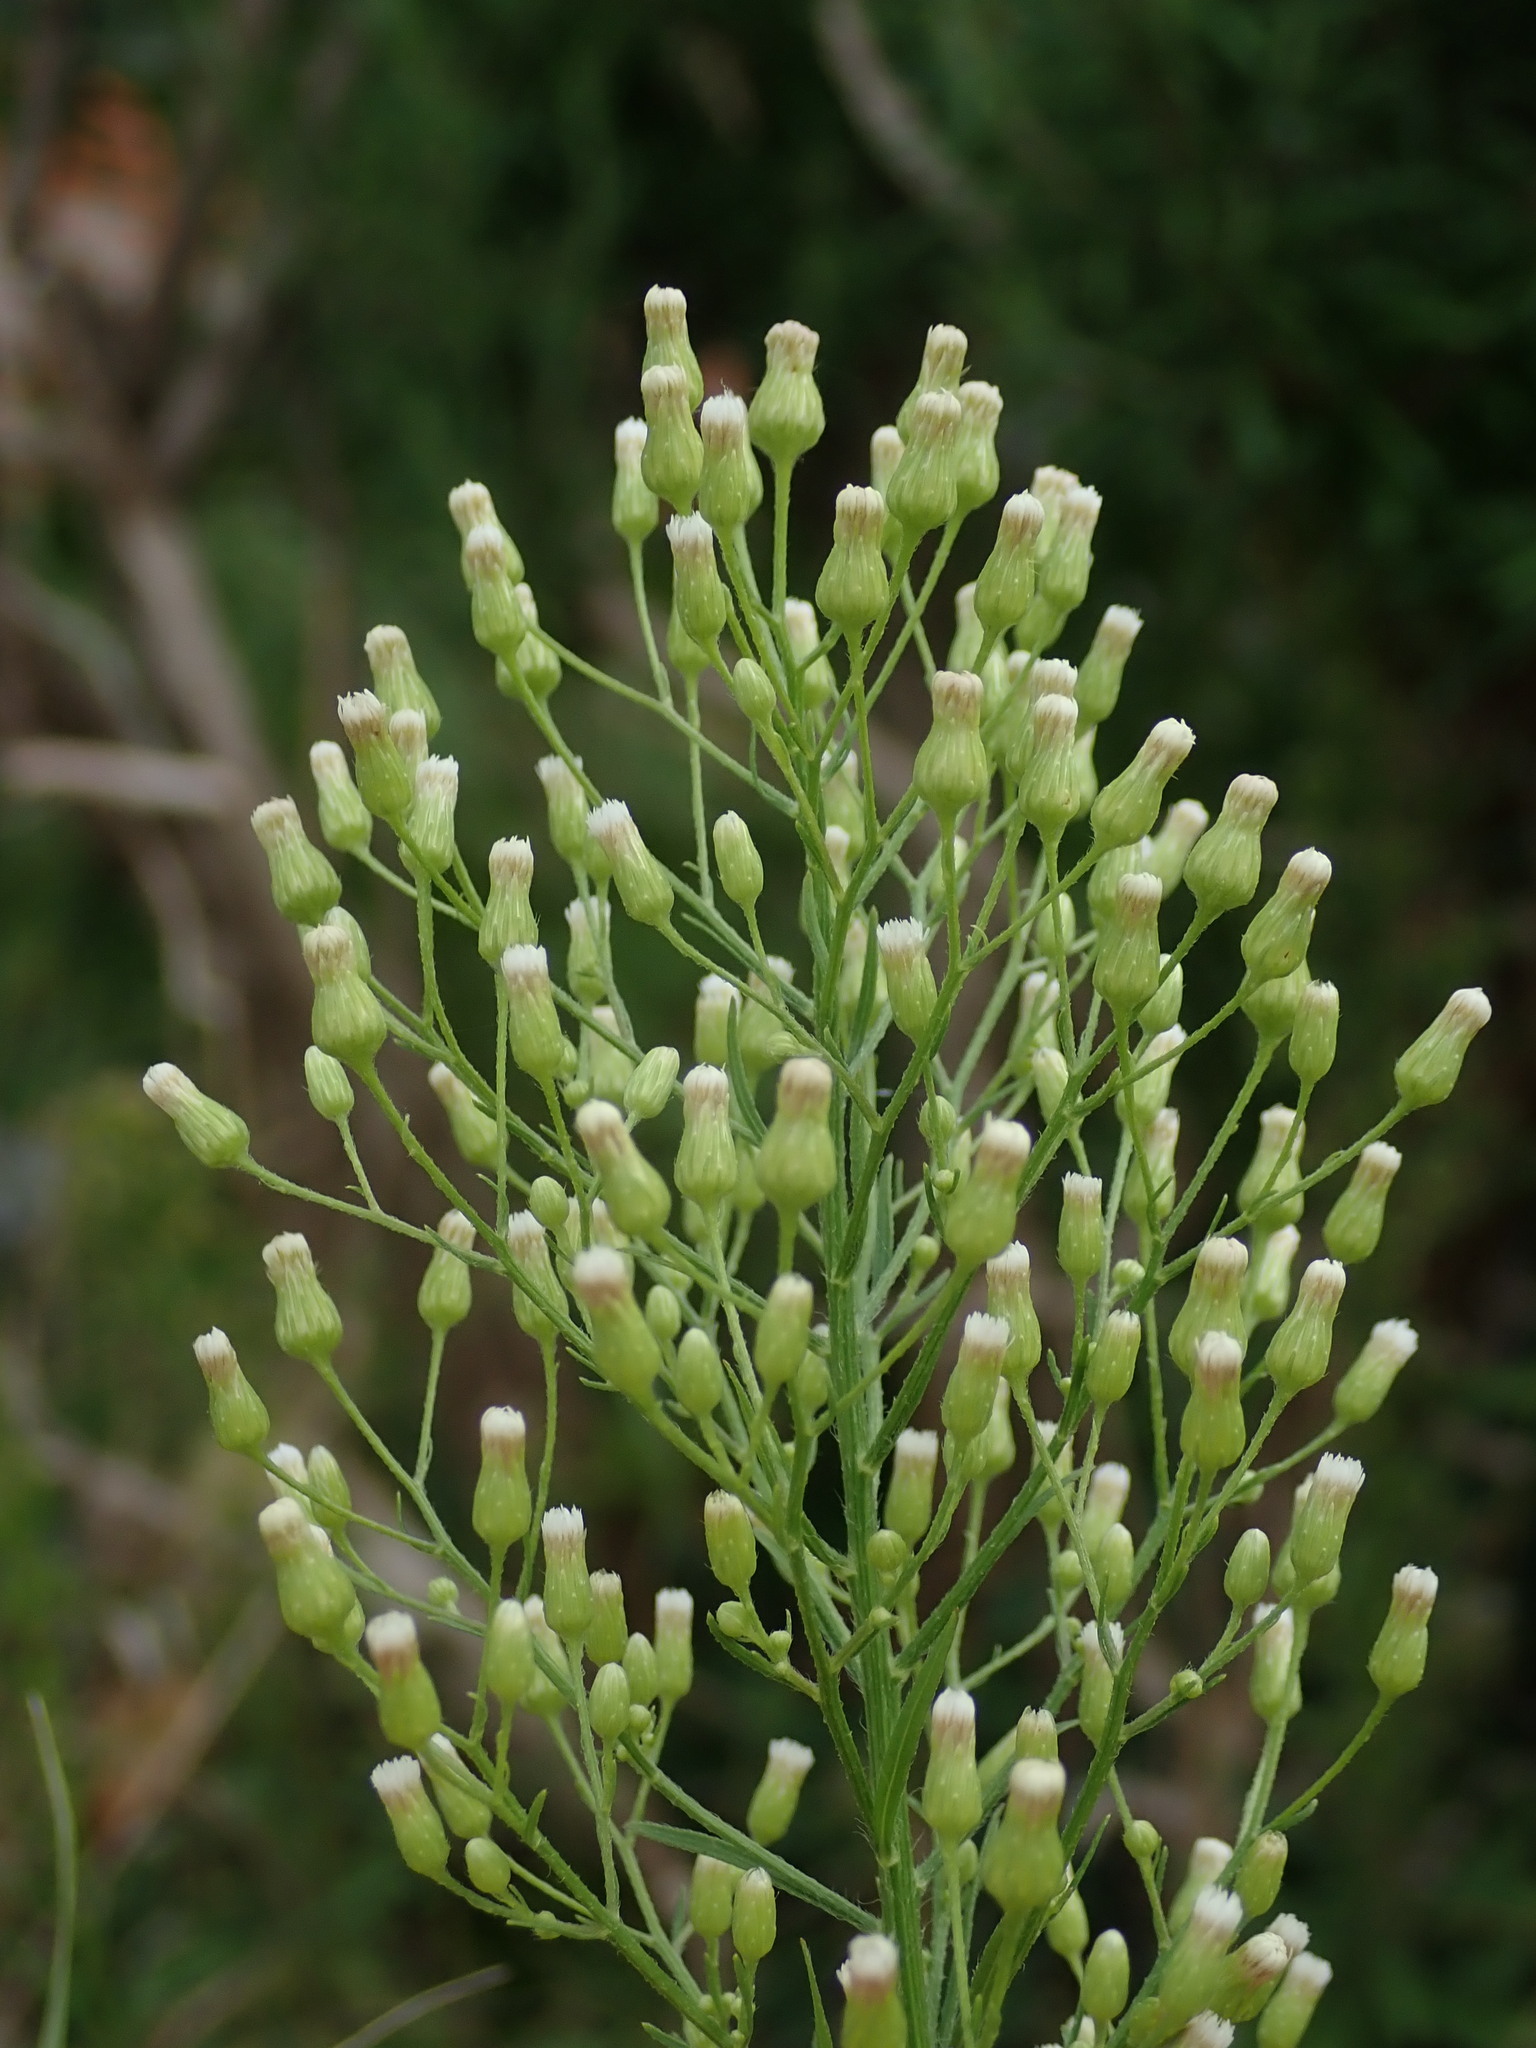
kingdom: Plantae
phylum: Tracheophyta
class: Magnoliopsida
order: Asterales
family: Asteraceae
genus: Erigeron
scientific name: Erigeron canadensis
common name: Canadian fleabane
